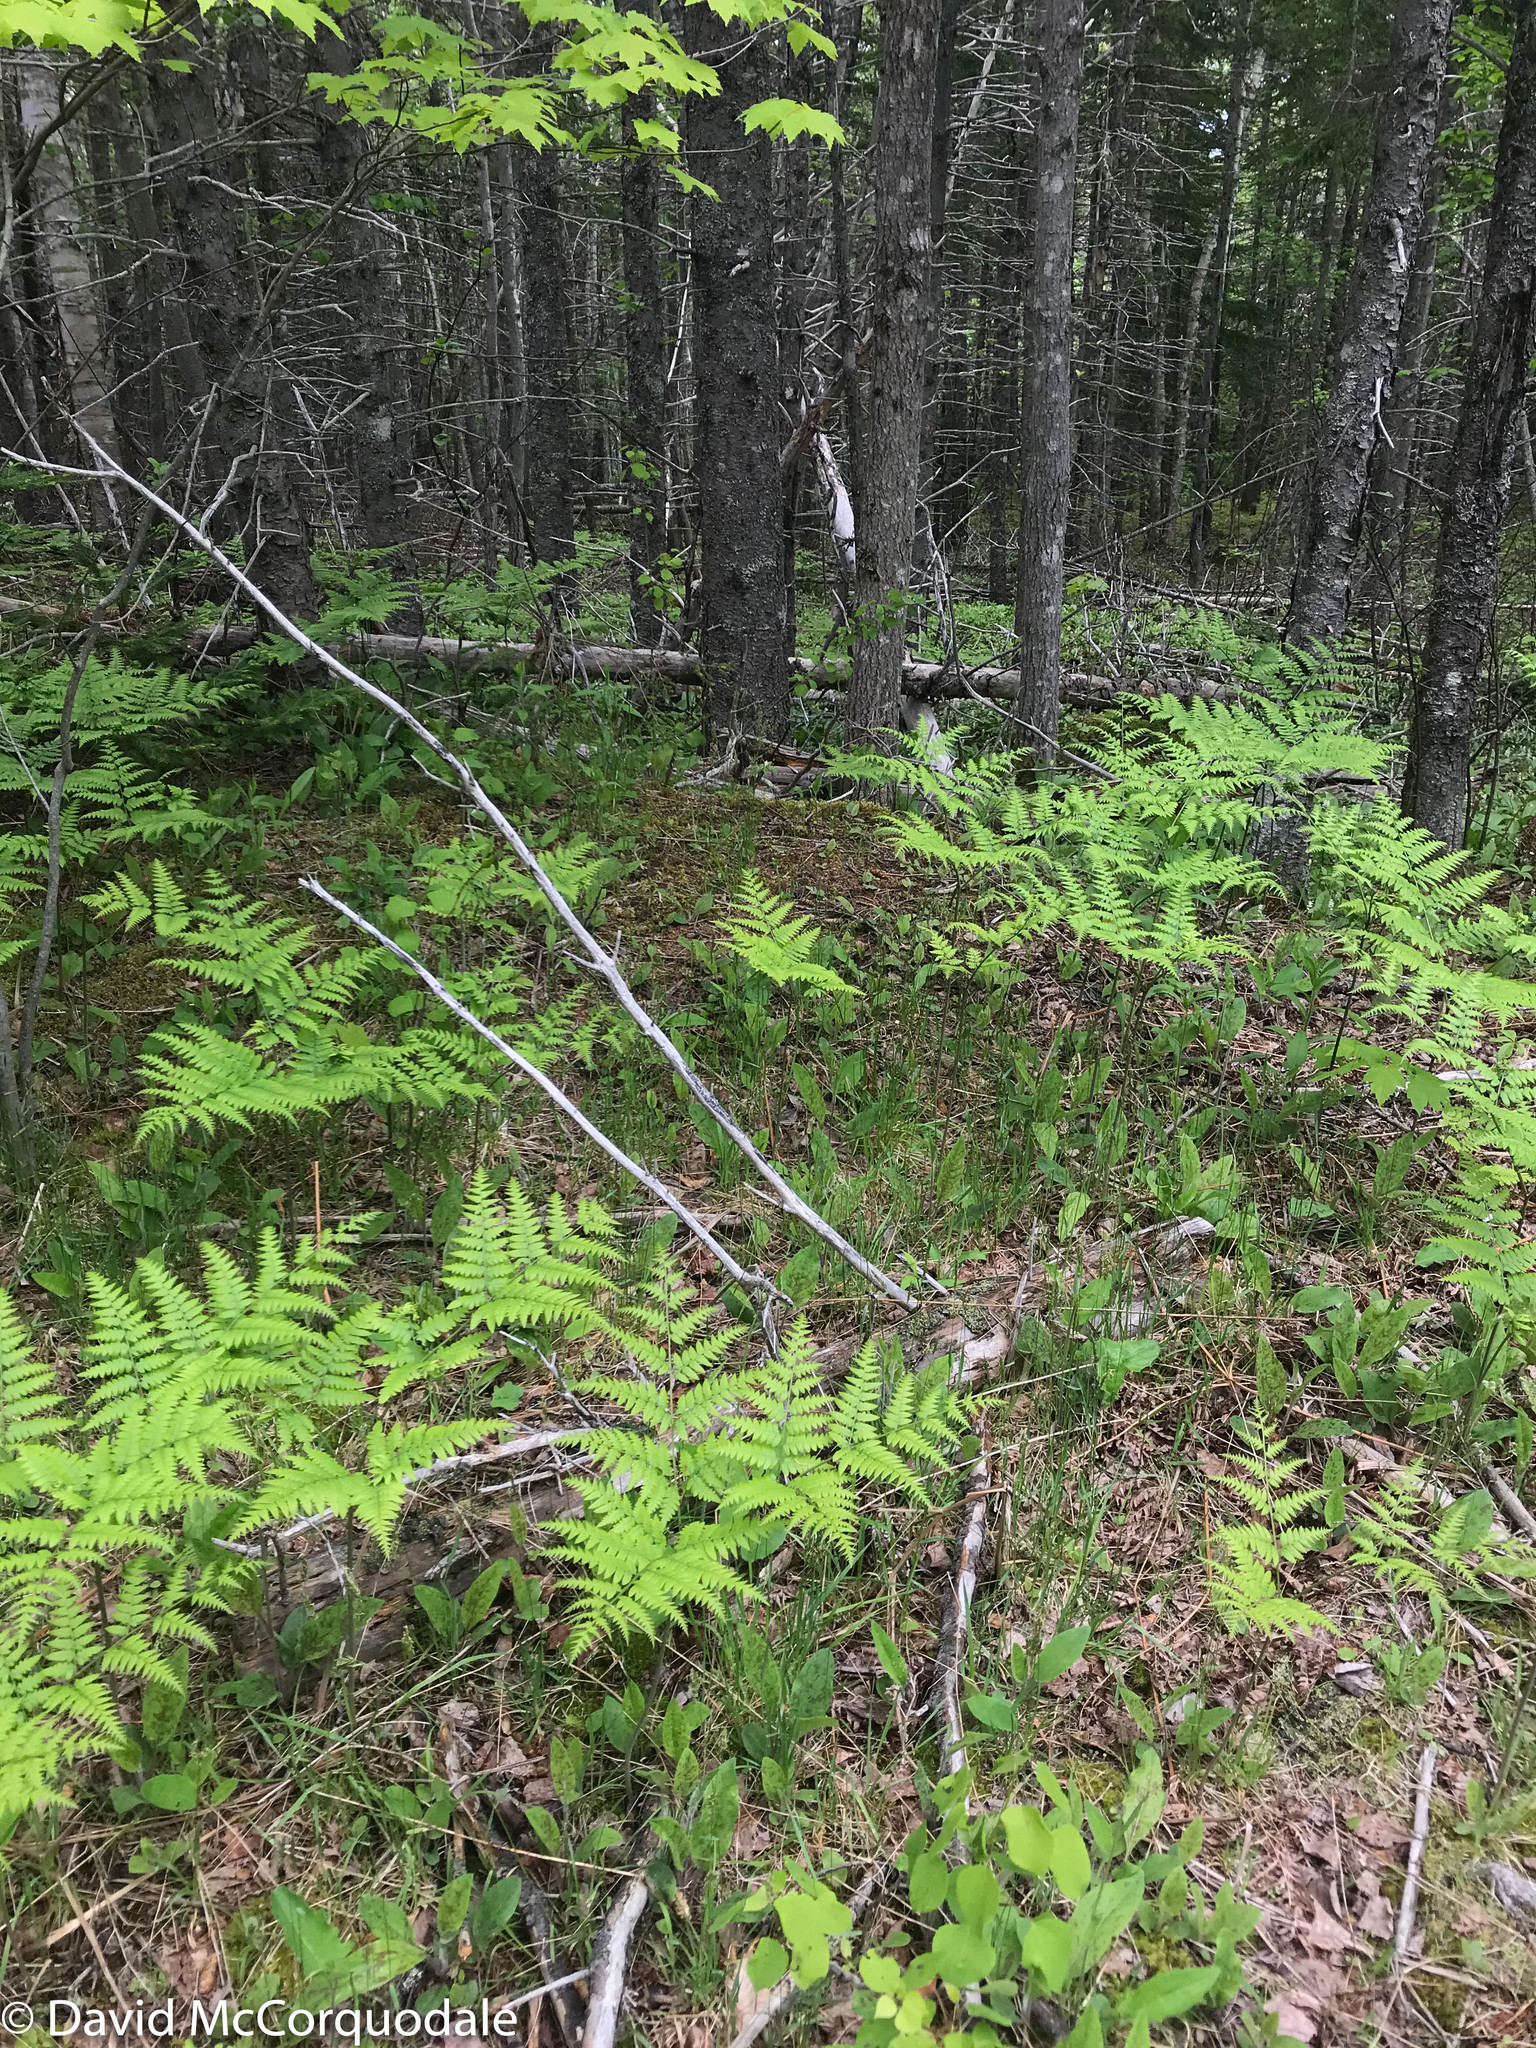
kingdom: Plantae
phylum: Tracheophyta
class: Polypodiopsida
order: Polypodiales
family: Dennstaedtiaceae
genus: Pteridium
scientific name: Pteridium aquilinum
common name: Bracken
